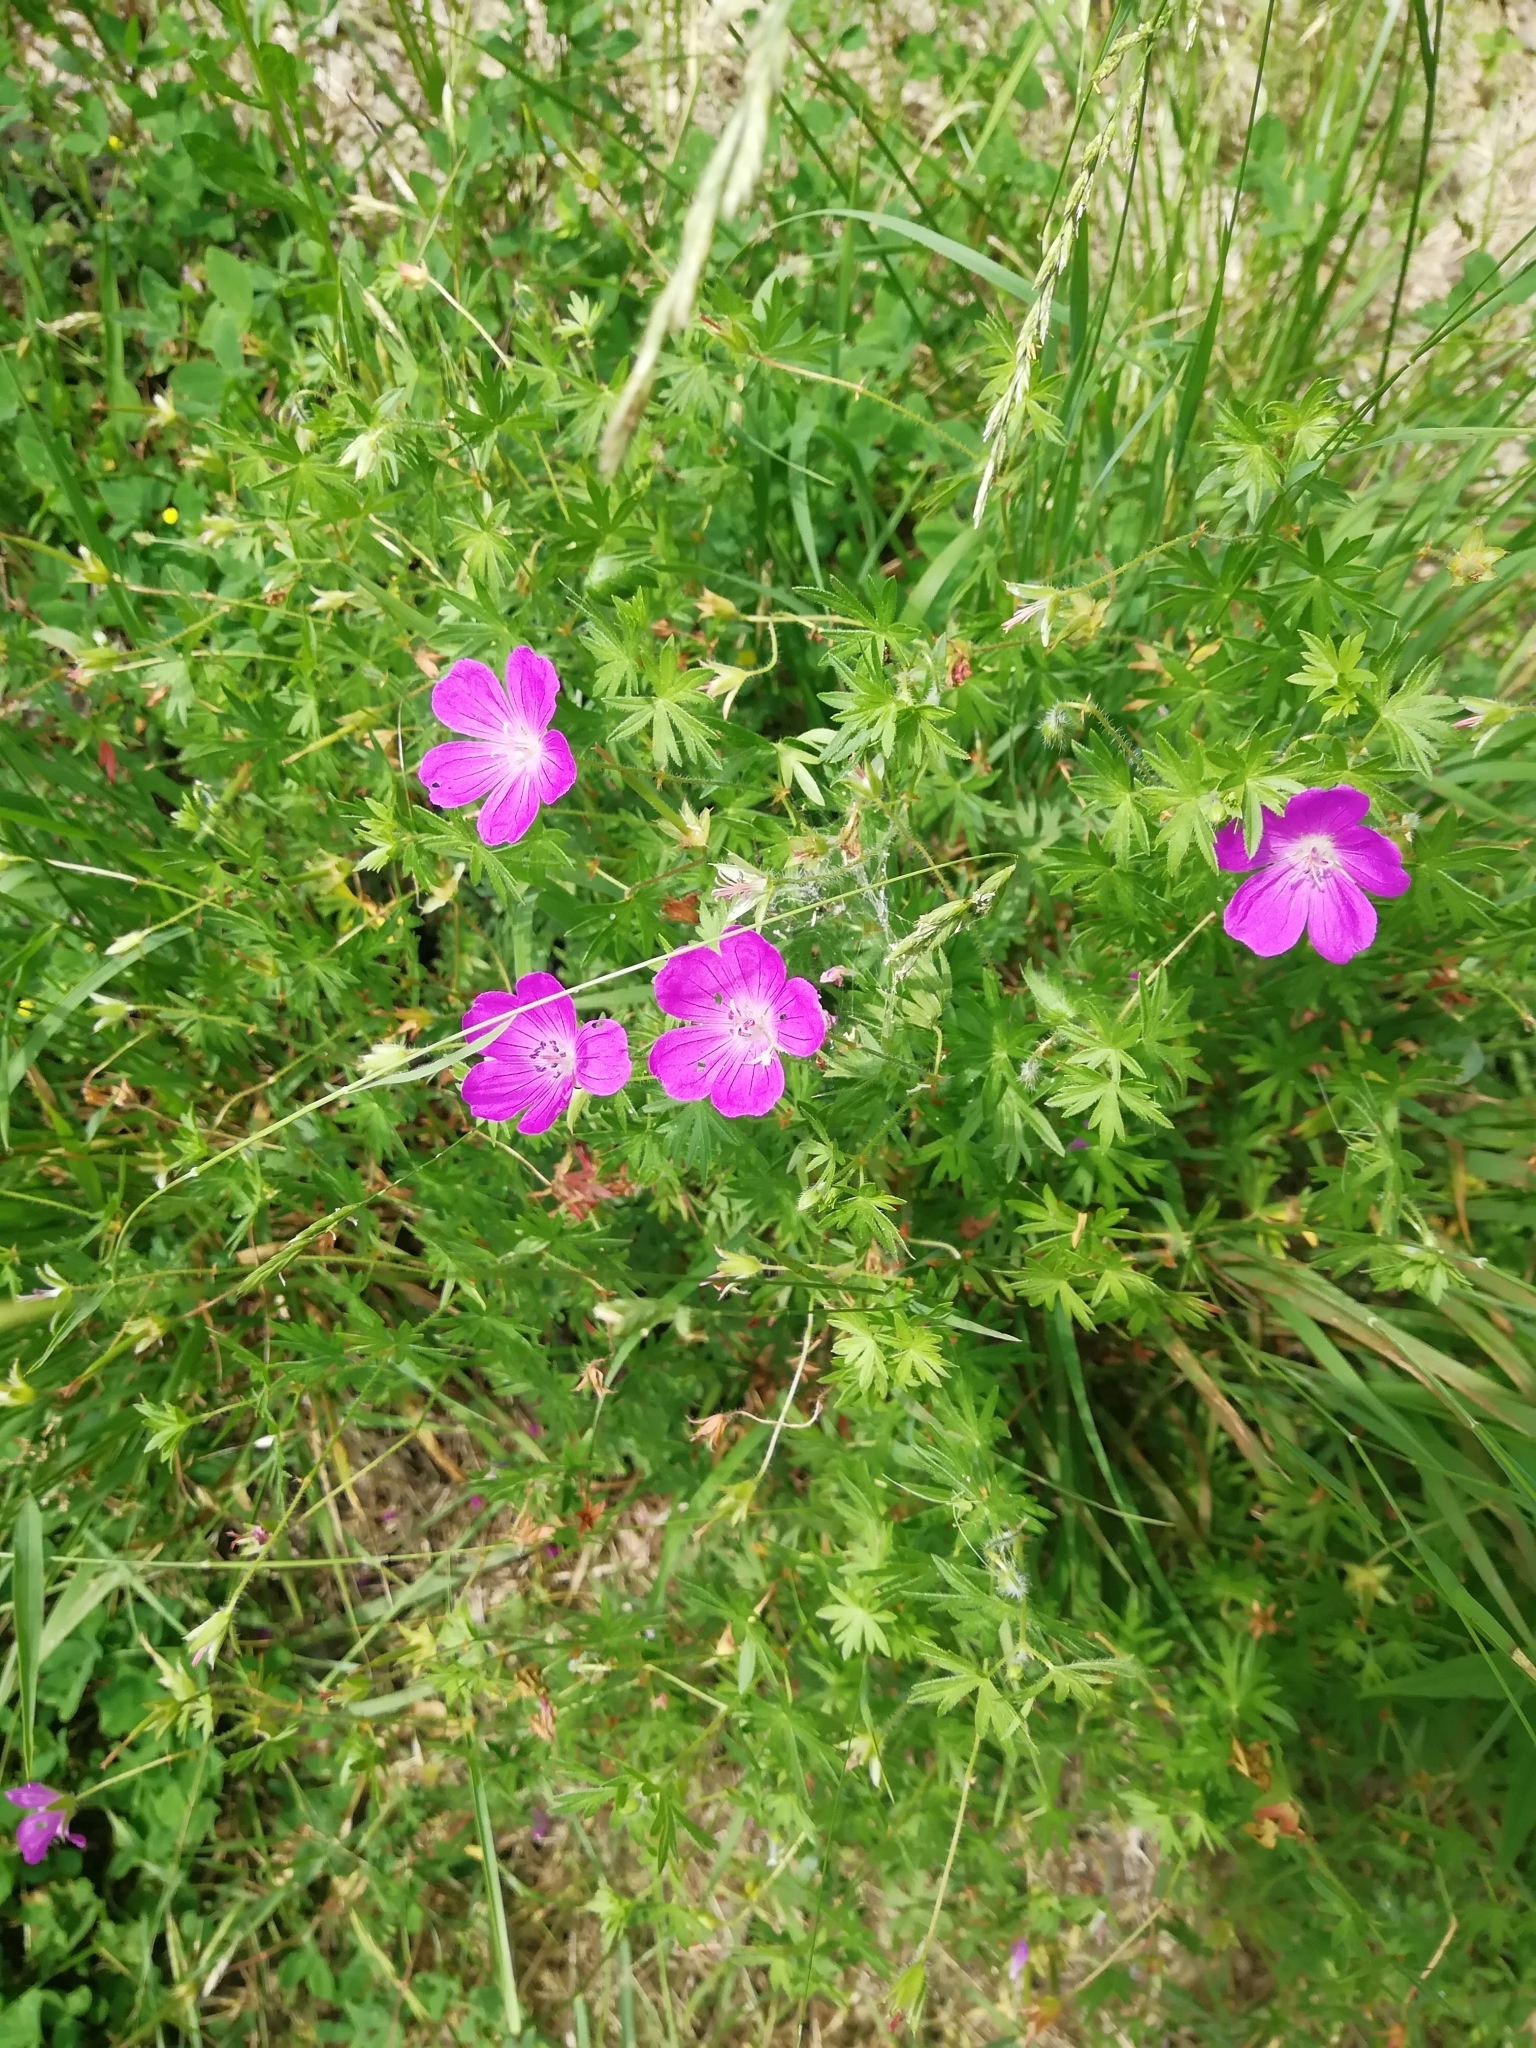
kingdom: Plantae
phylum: Tracheophyta
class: Magnoliopsida
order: Geraniales
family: Geraniaceae
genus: Geranium
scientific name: Geranium sanguineum
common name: Bloody crane's-bill
